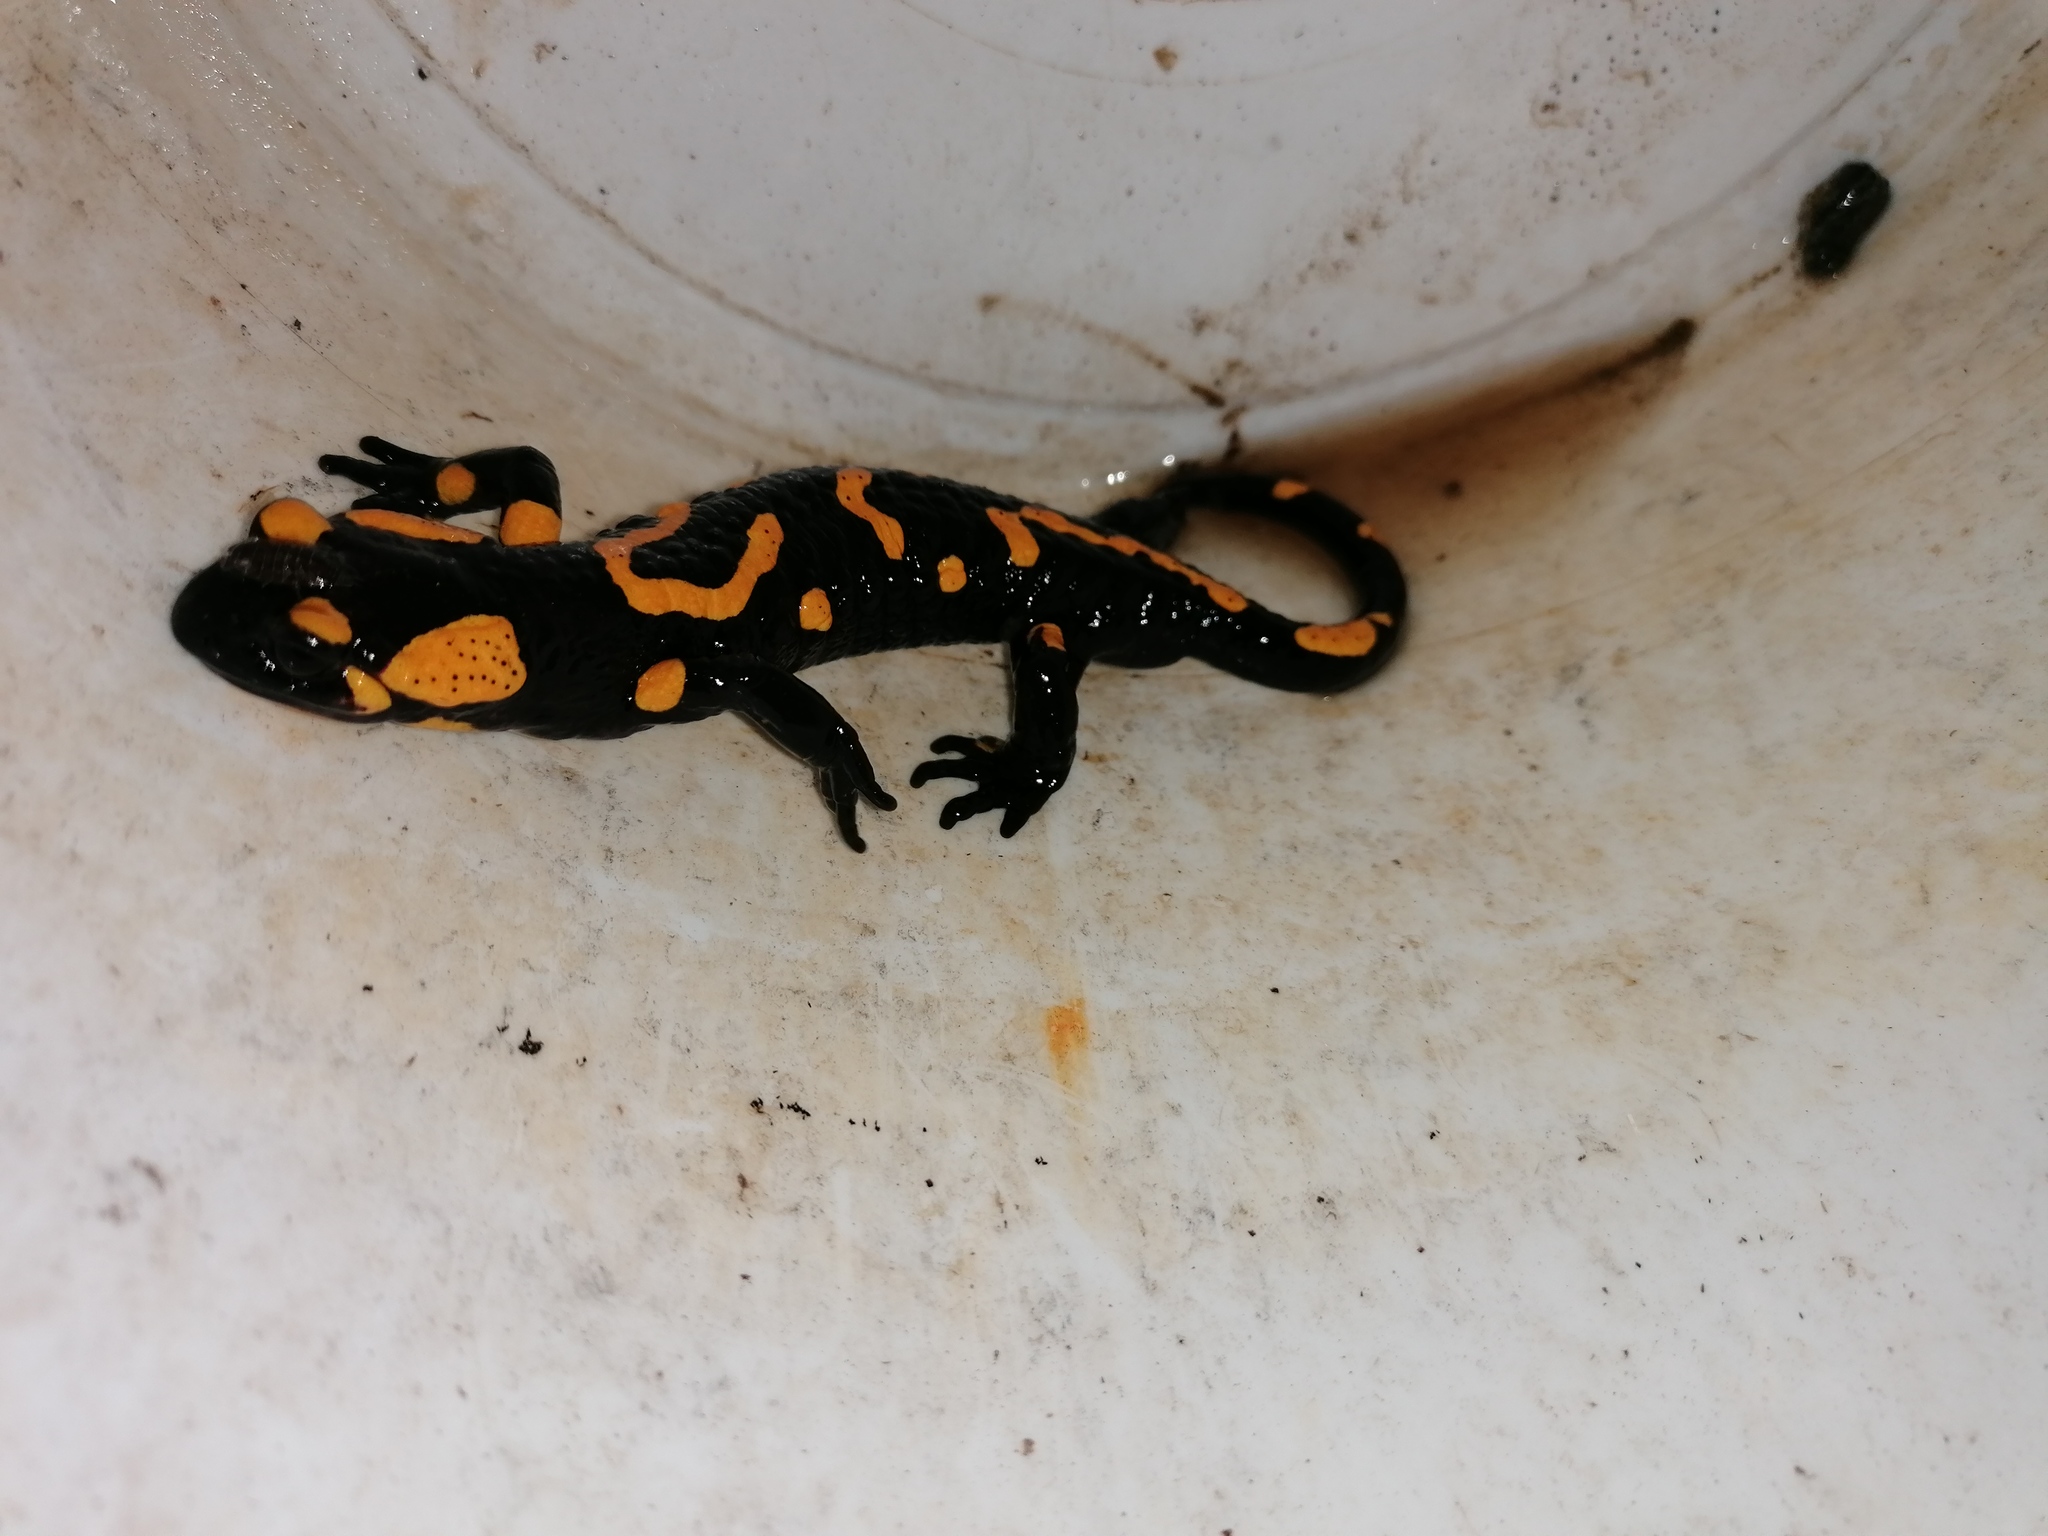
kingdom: Animalia
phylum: Chordata
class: Amphibia
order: Caudata
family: Salamandridae
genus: Salamandra
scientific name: Salamandra salamandra
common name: Fire salamander
